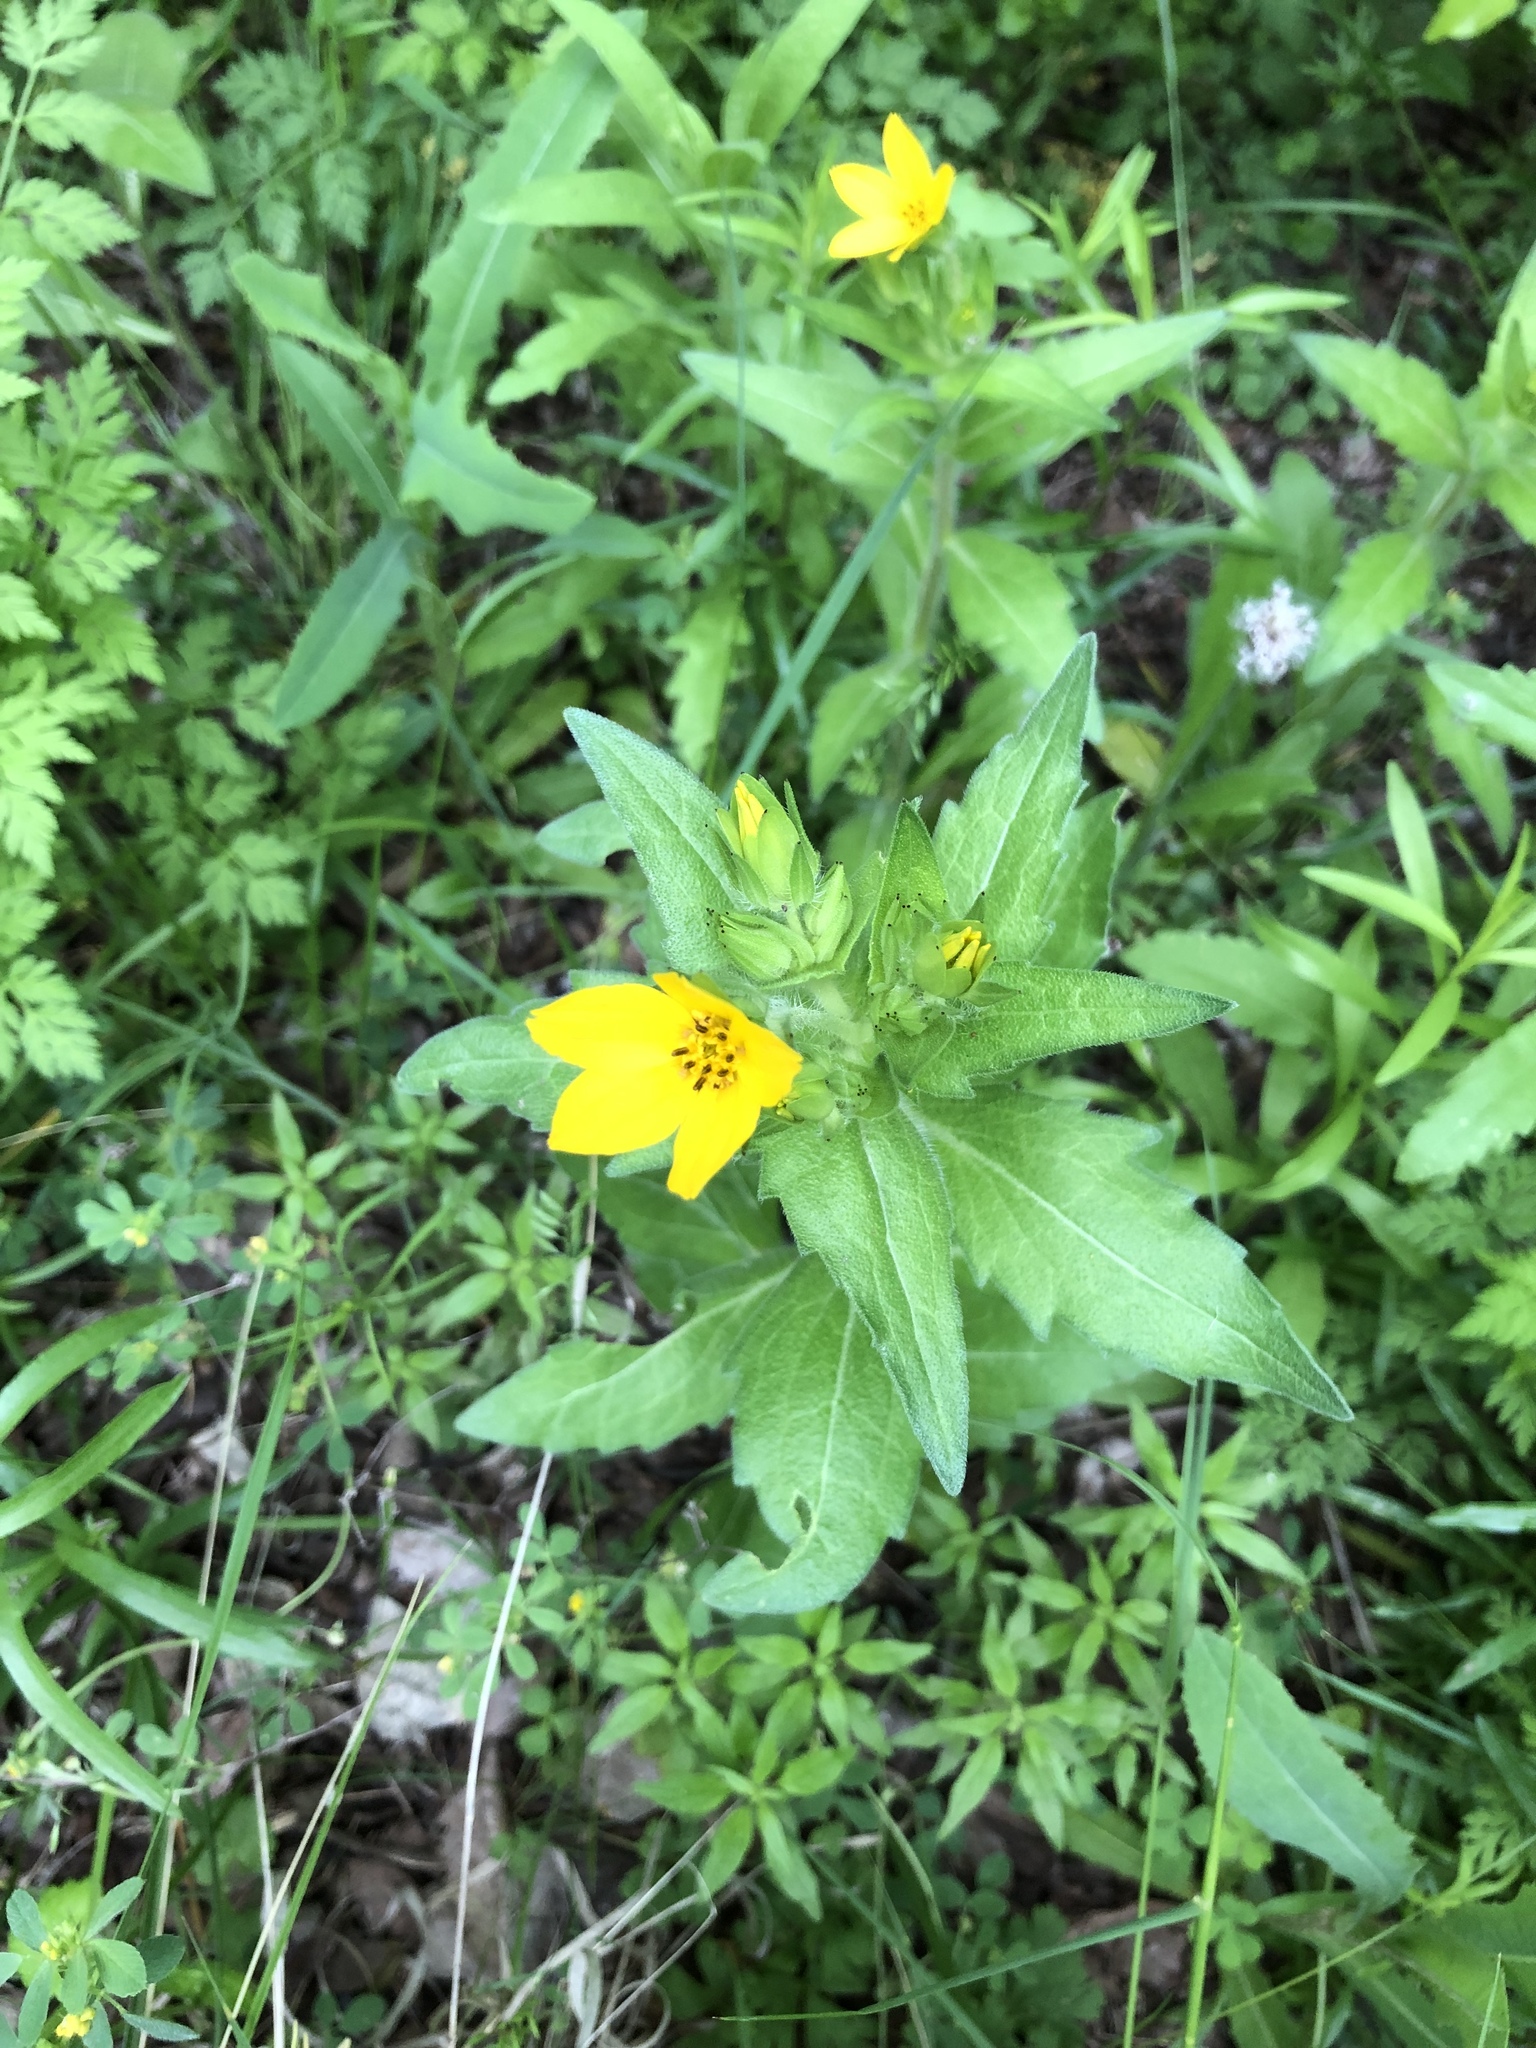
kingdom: Plantae
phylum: Tracheophyta
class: Magnoliopsida
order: Asterales
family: Asteraceae
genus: Lindheimera
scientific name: Lindheimera texana
